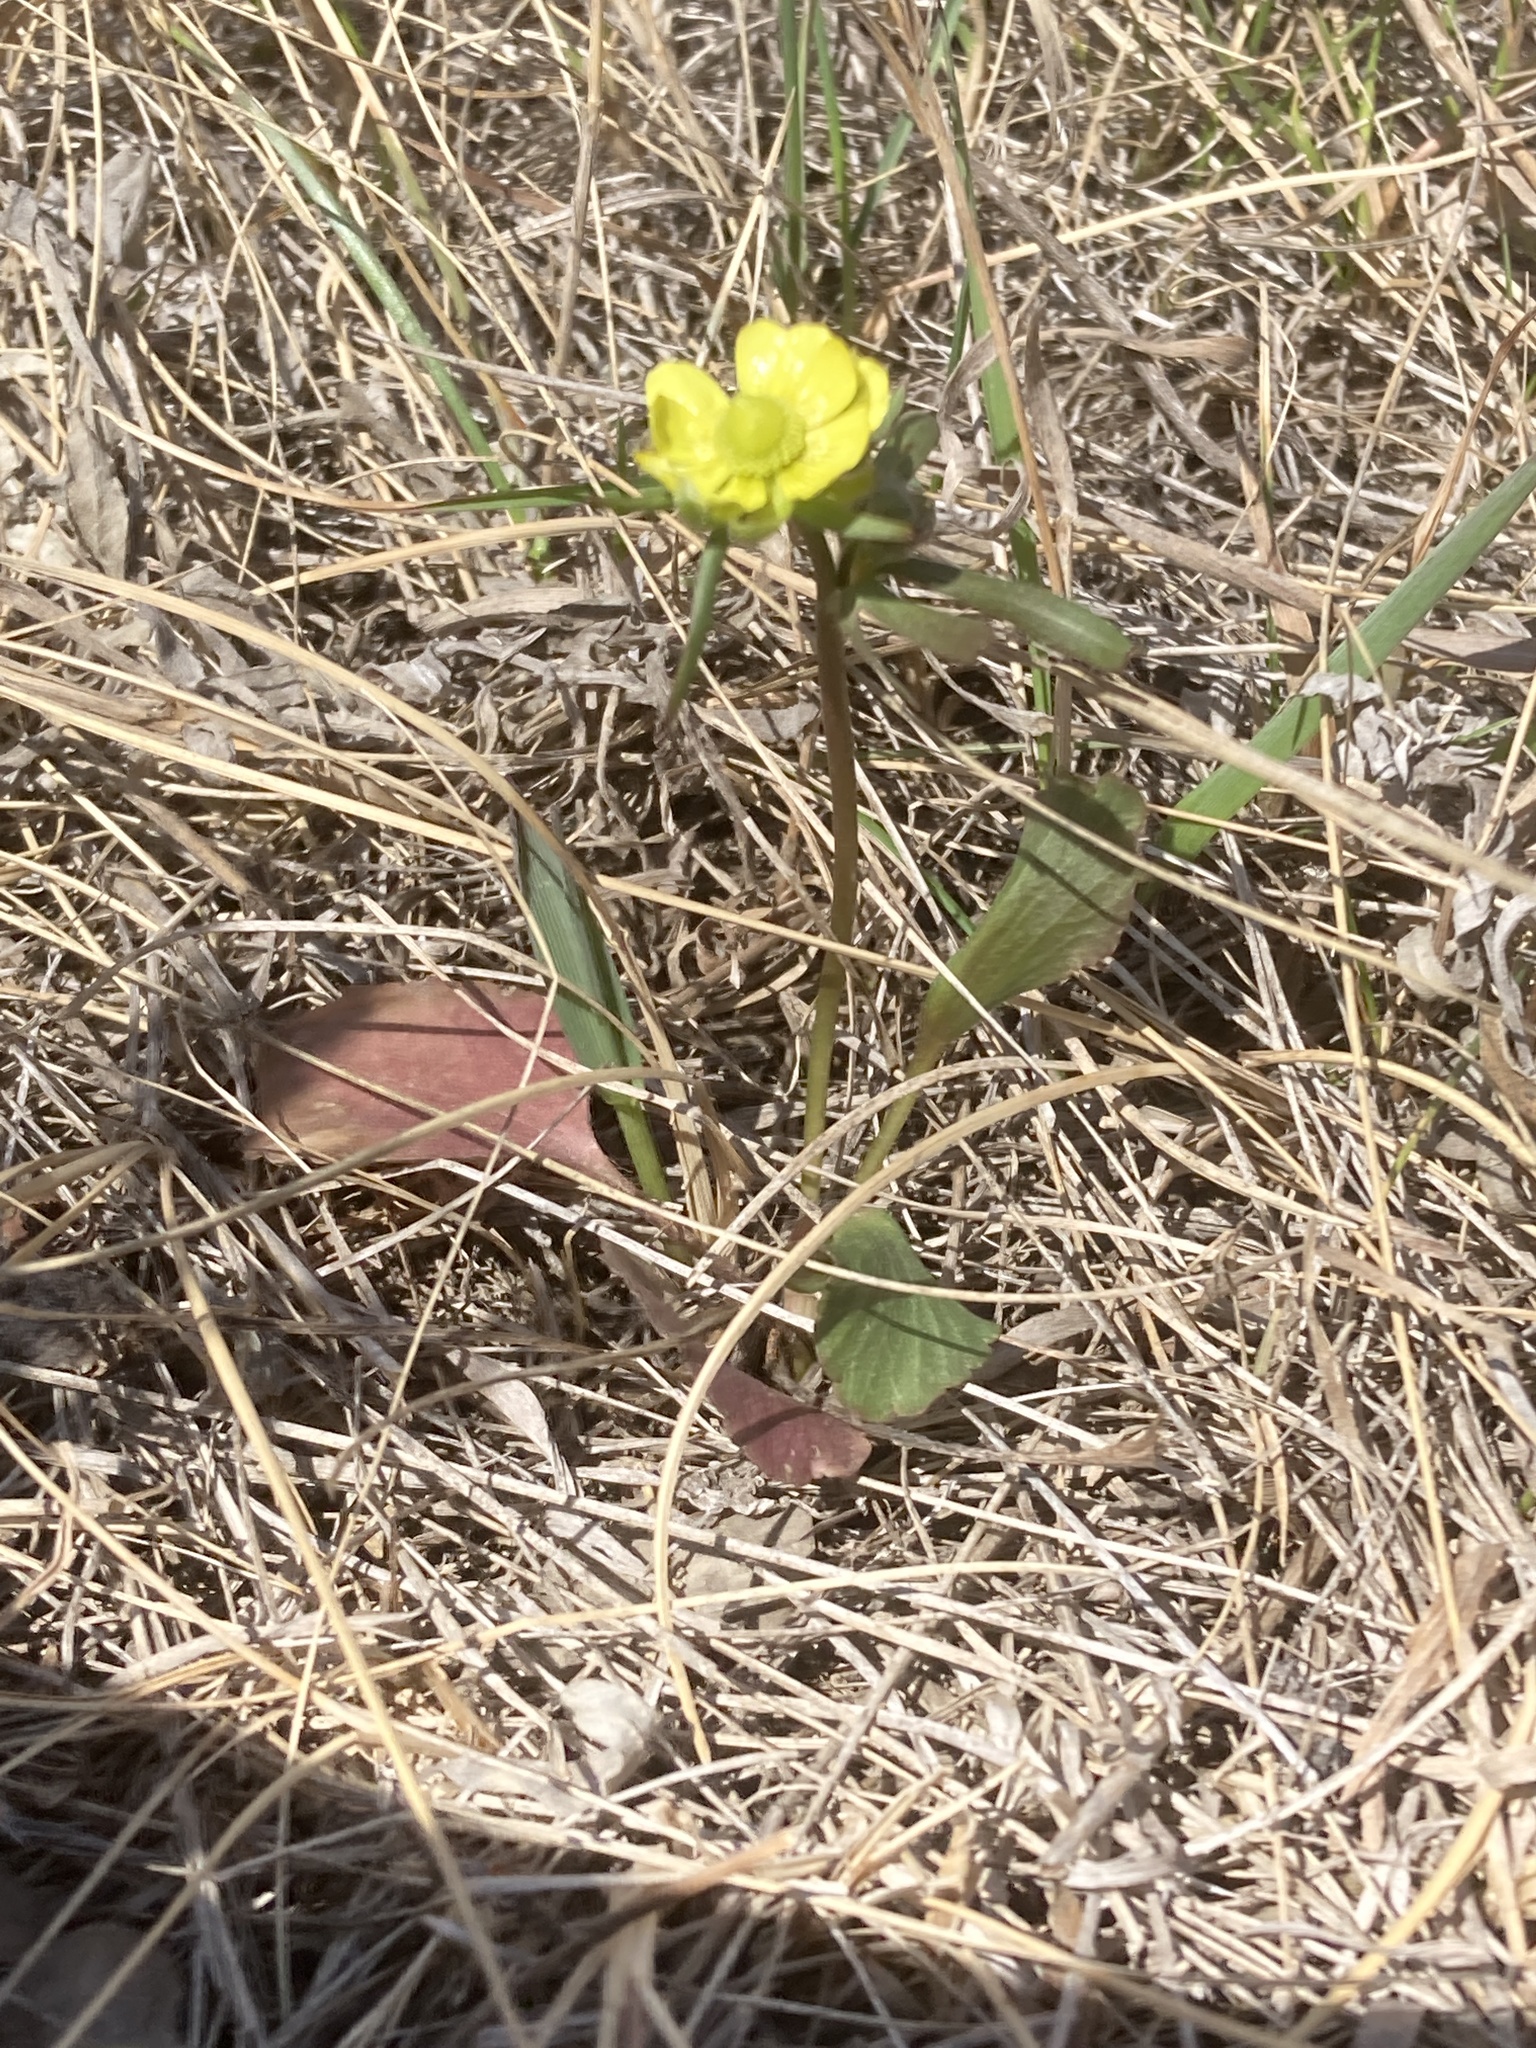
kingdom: Plantae
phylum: Tracheophyta
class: Magnoliopsida
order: Ranunculales
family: Ranunculaceae
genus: Ranunculus
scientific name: Ranunculus rhomboideus
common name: Prairie buttercup
